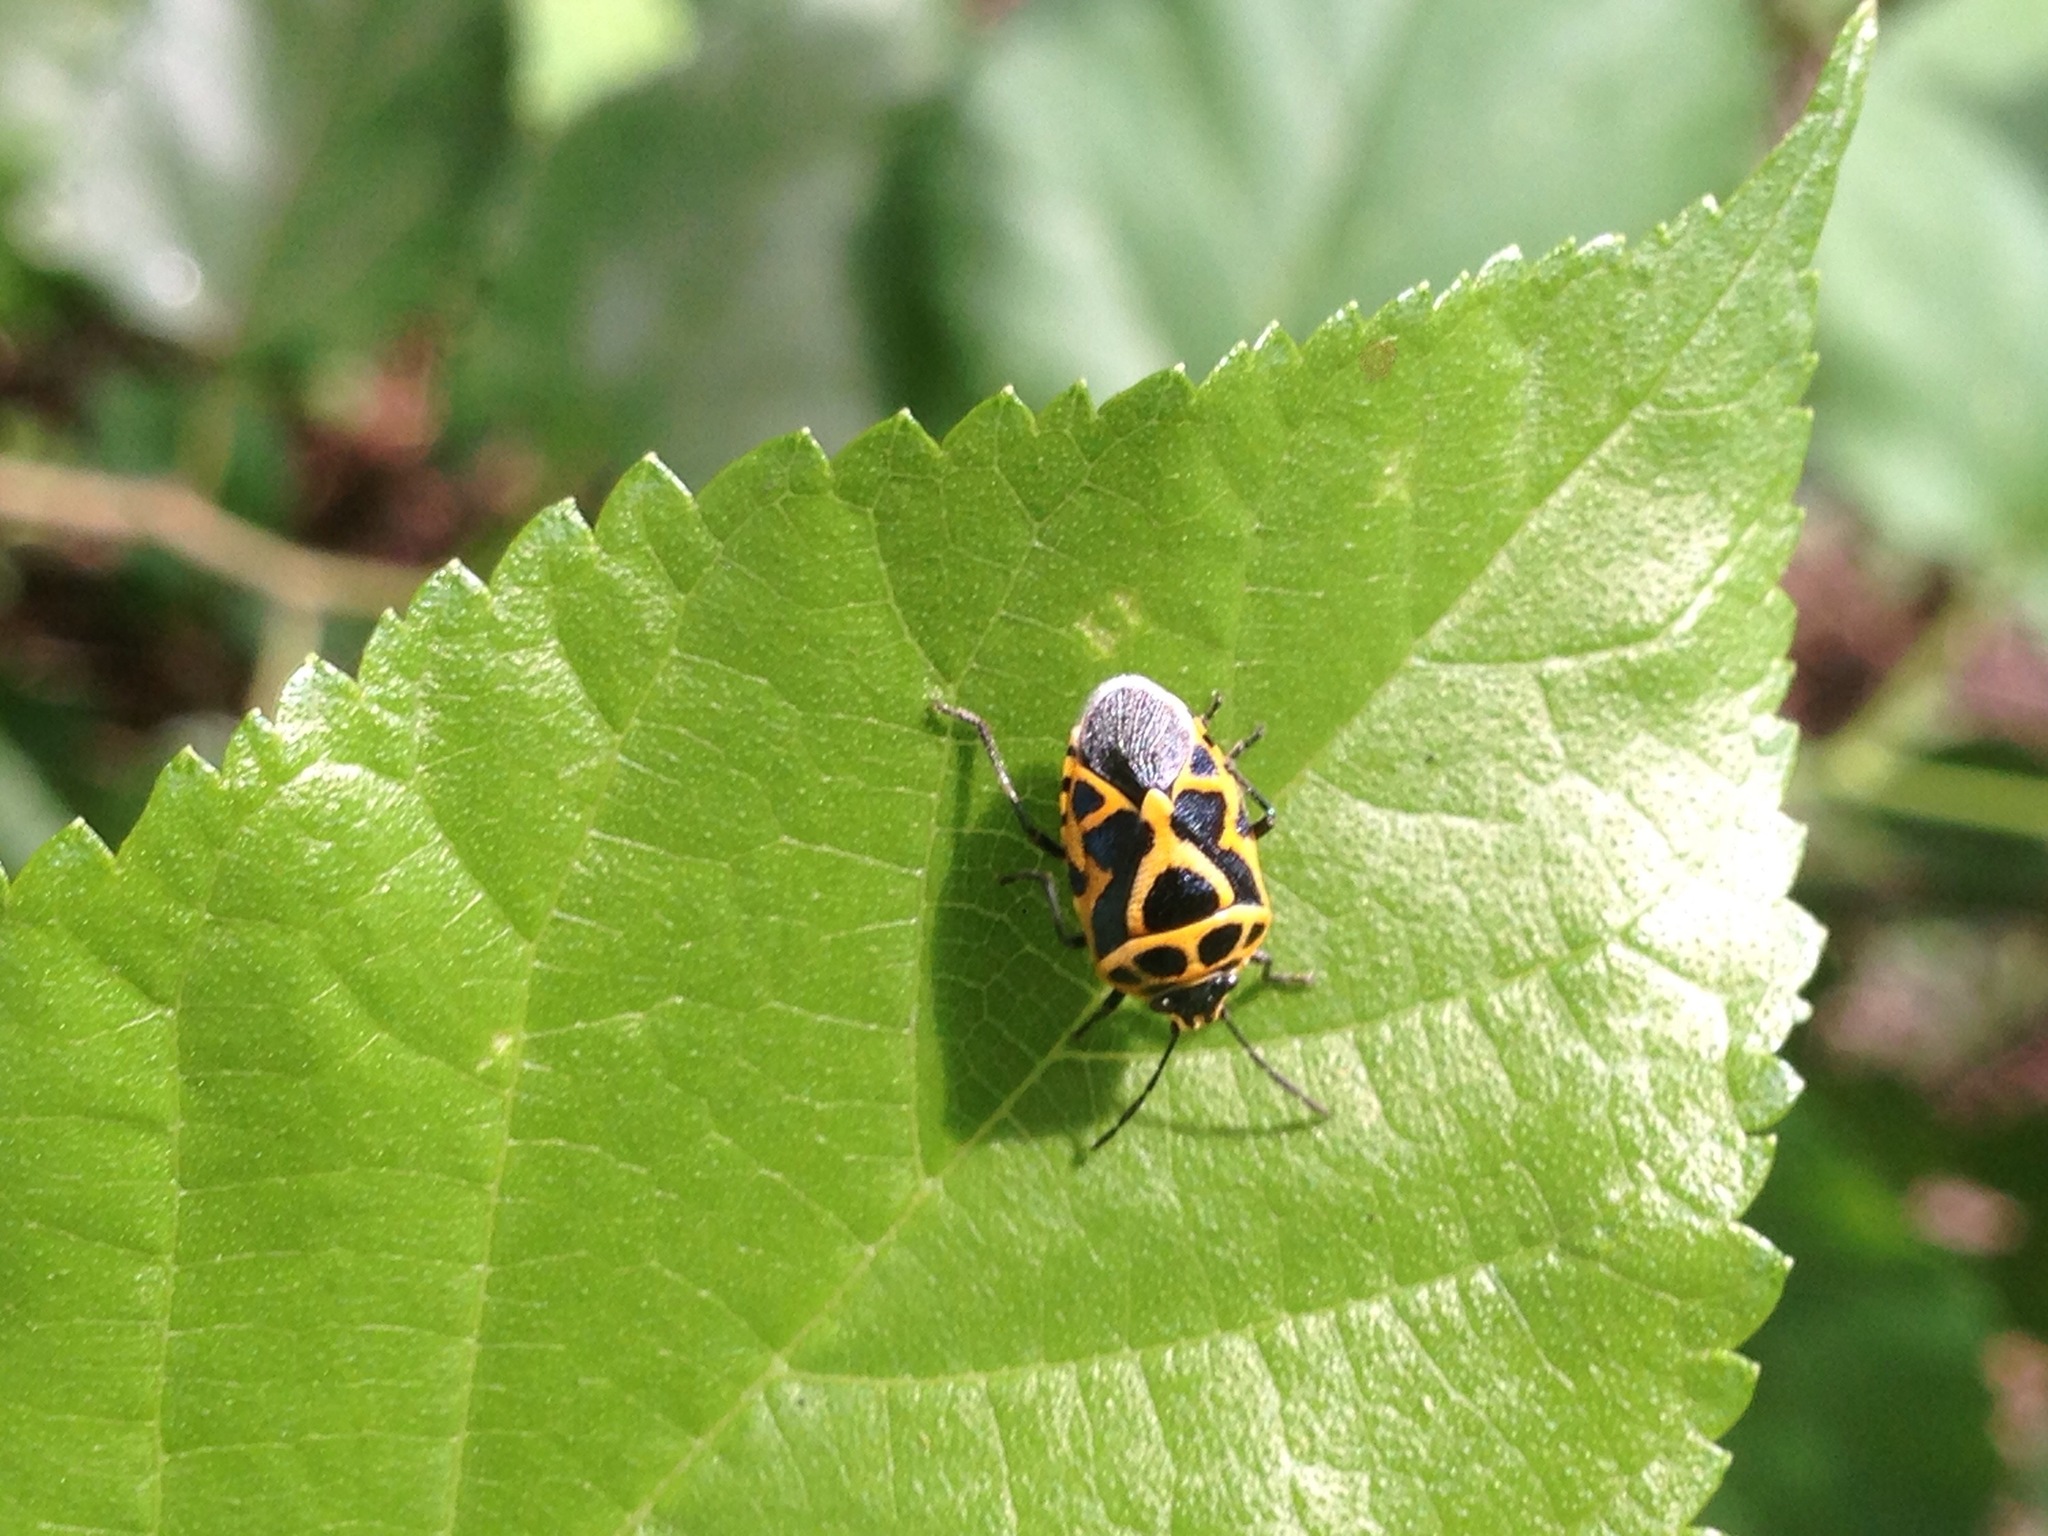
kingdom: Animalia
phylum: Arthropoda
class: Insecta
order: Hemiptera
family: Pentatomidae
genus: Eurydema
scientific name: Eurydema dominulus
